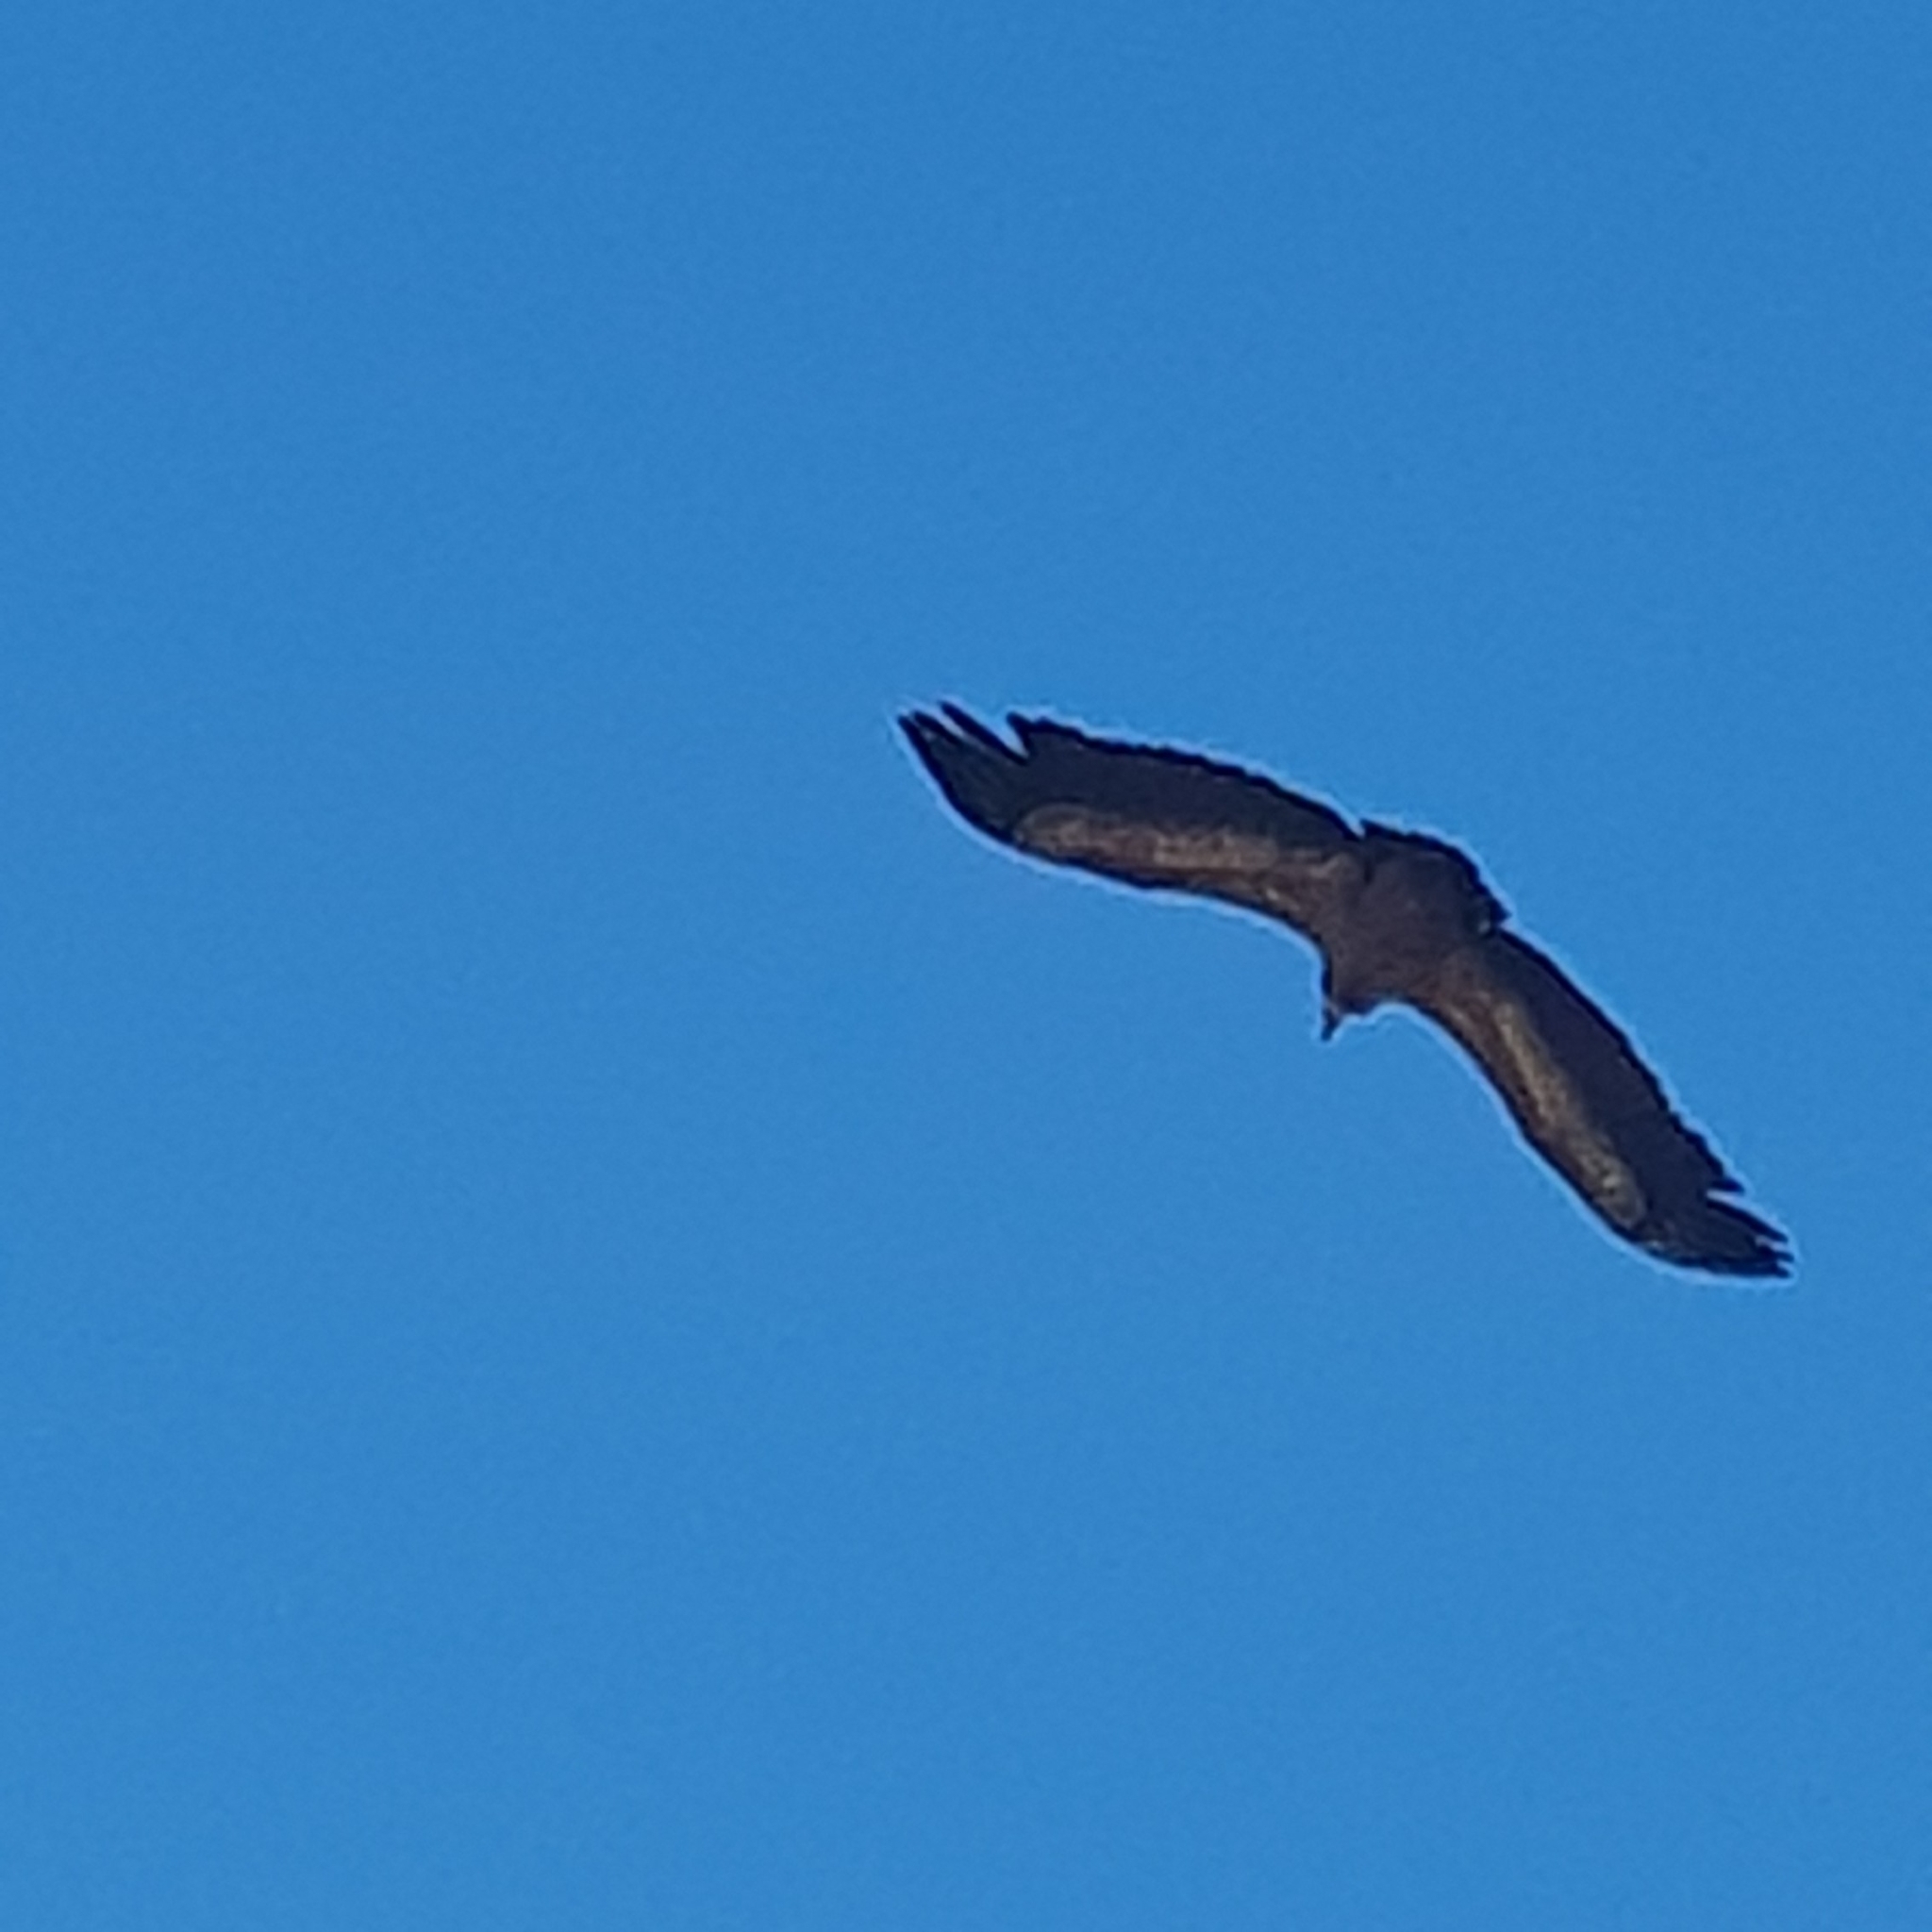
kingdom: Animalia
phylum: Chordata
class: Aves
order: Accipitriformes
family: Accipitridae
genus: Gyps
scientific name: Gyps fulvus
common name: Griffon vulture
